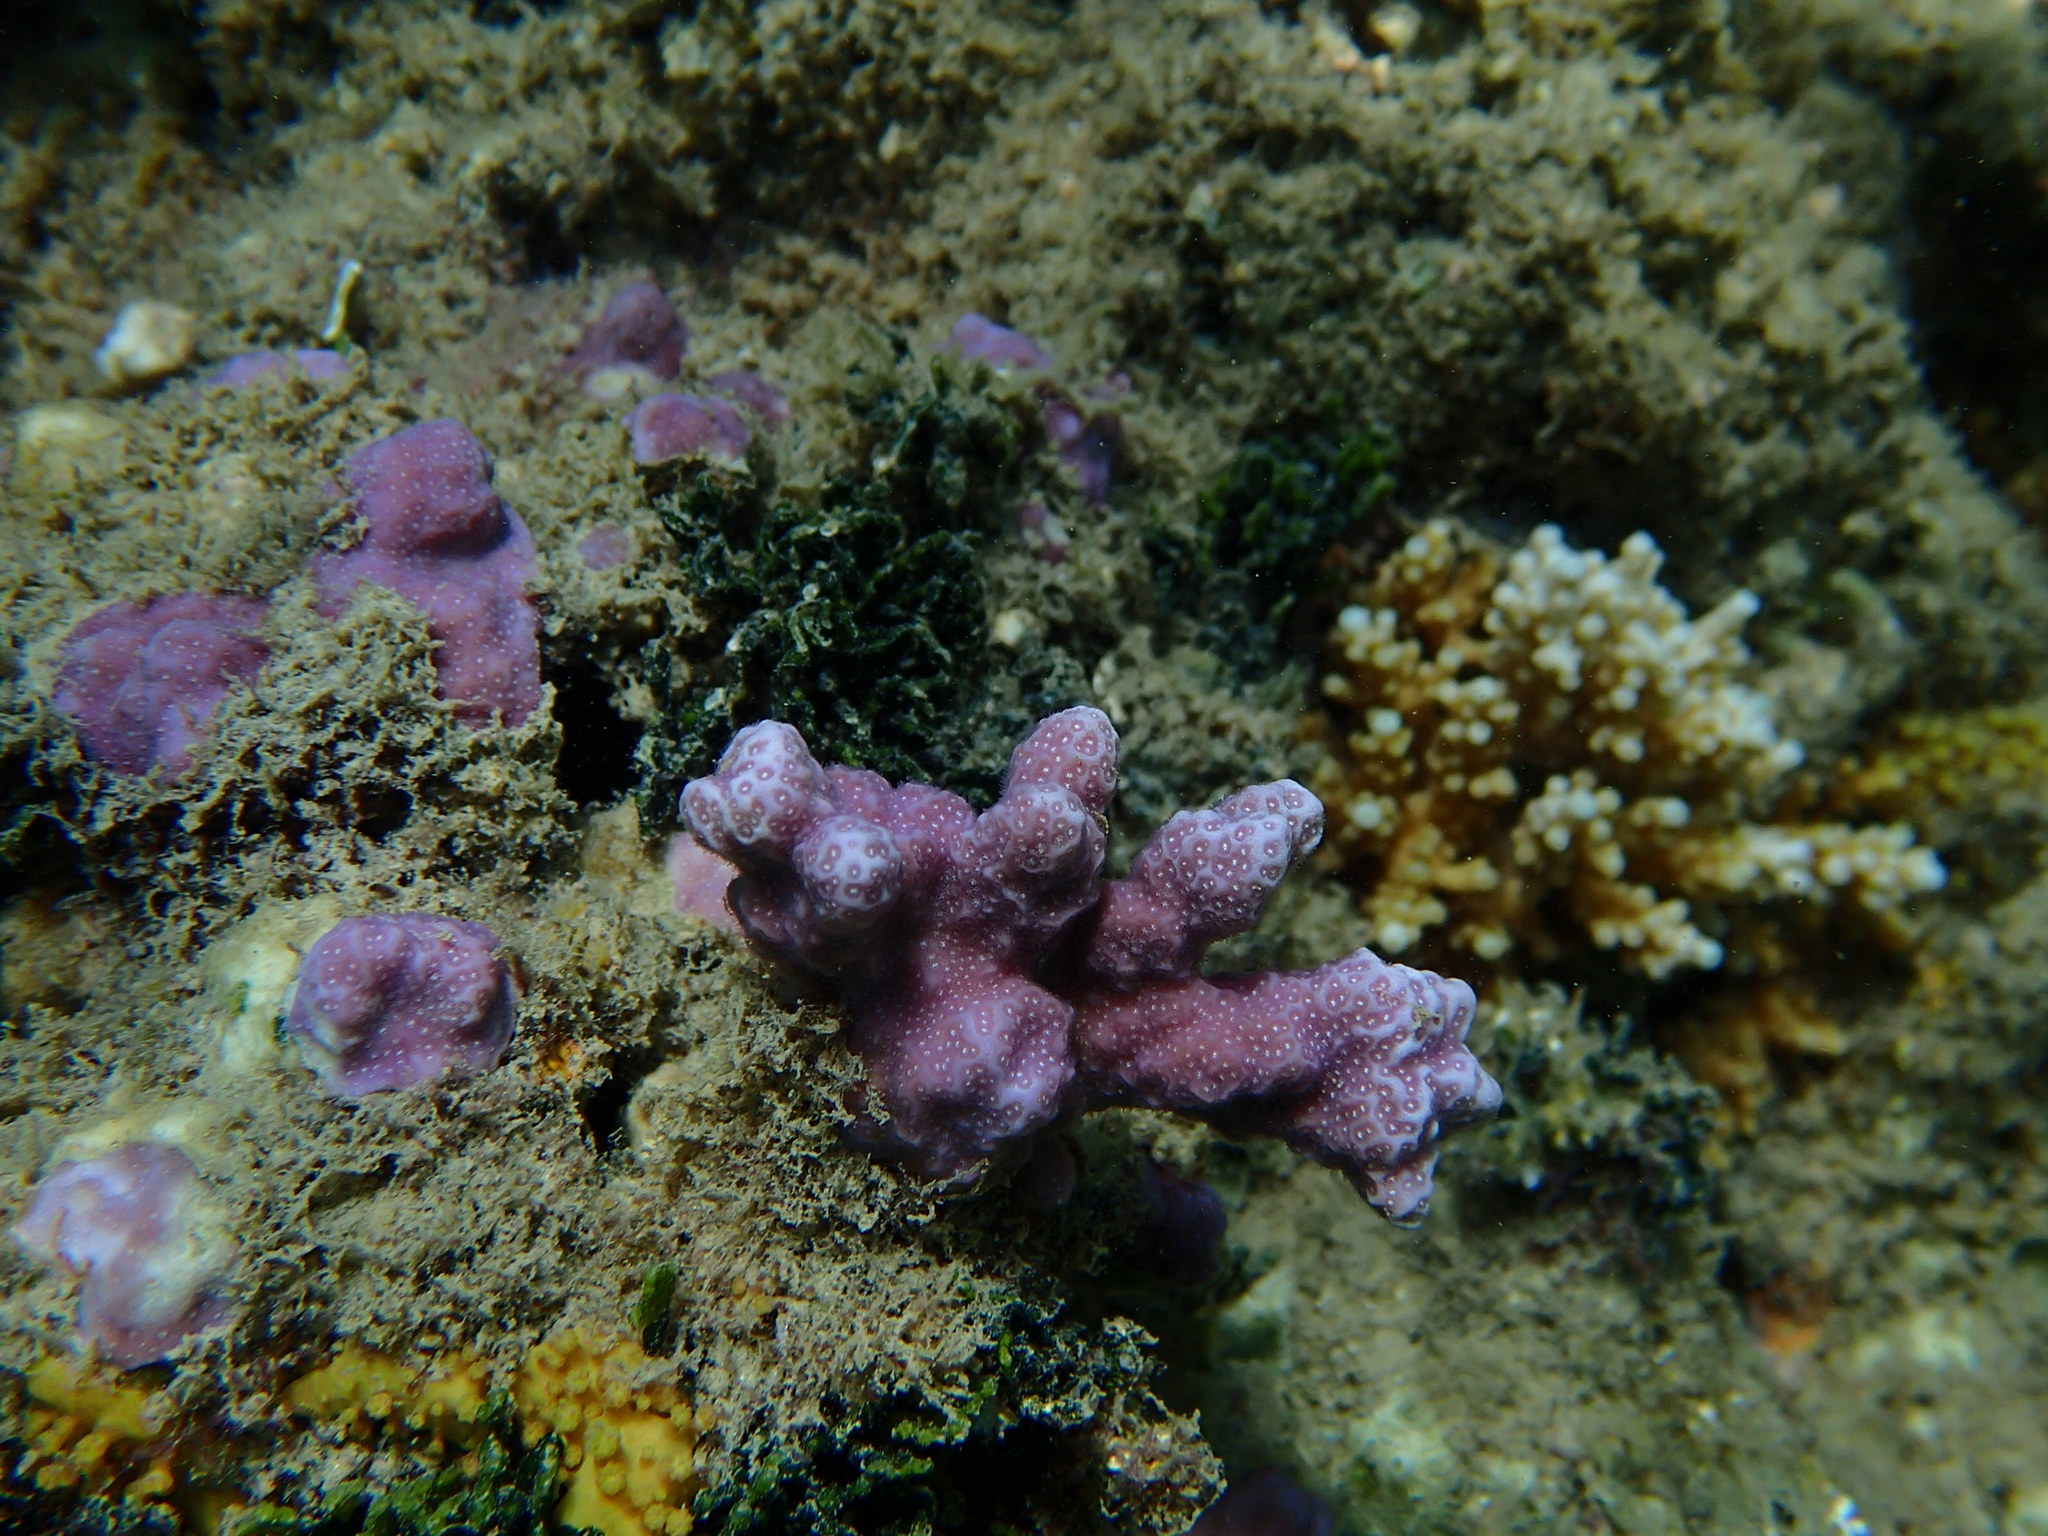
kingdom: Animalia
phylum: Cnidaria
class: Anthozoa
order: Scleractinia
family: Poritidae
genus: Porites
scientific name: Porites rus
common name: Hump coral
